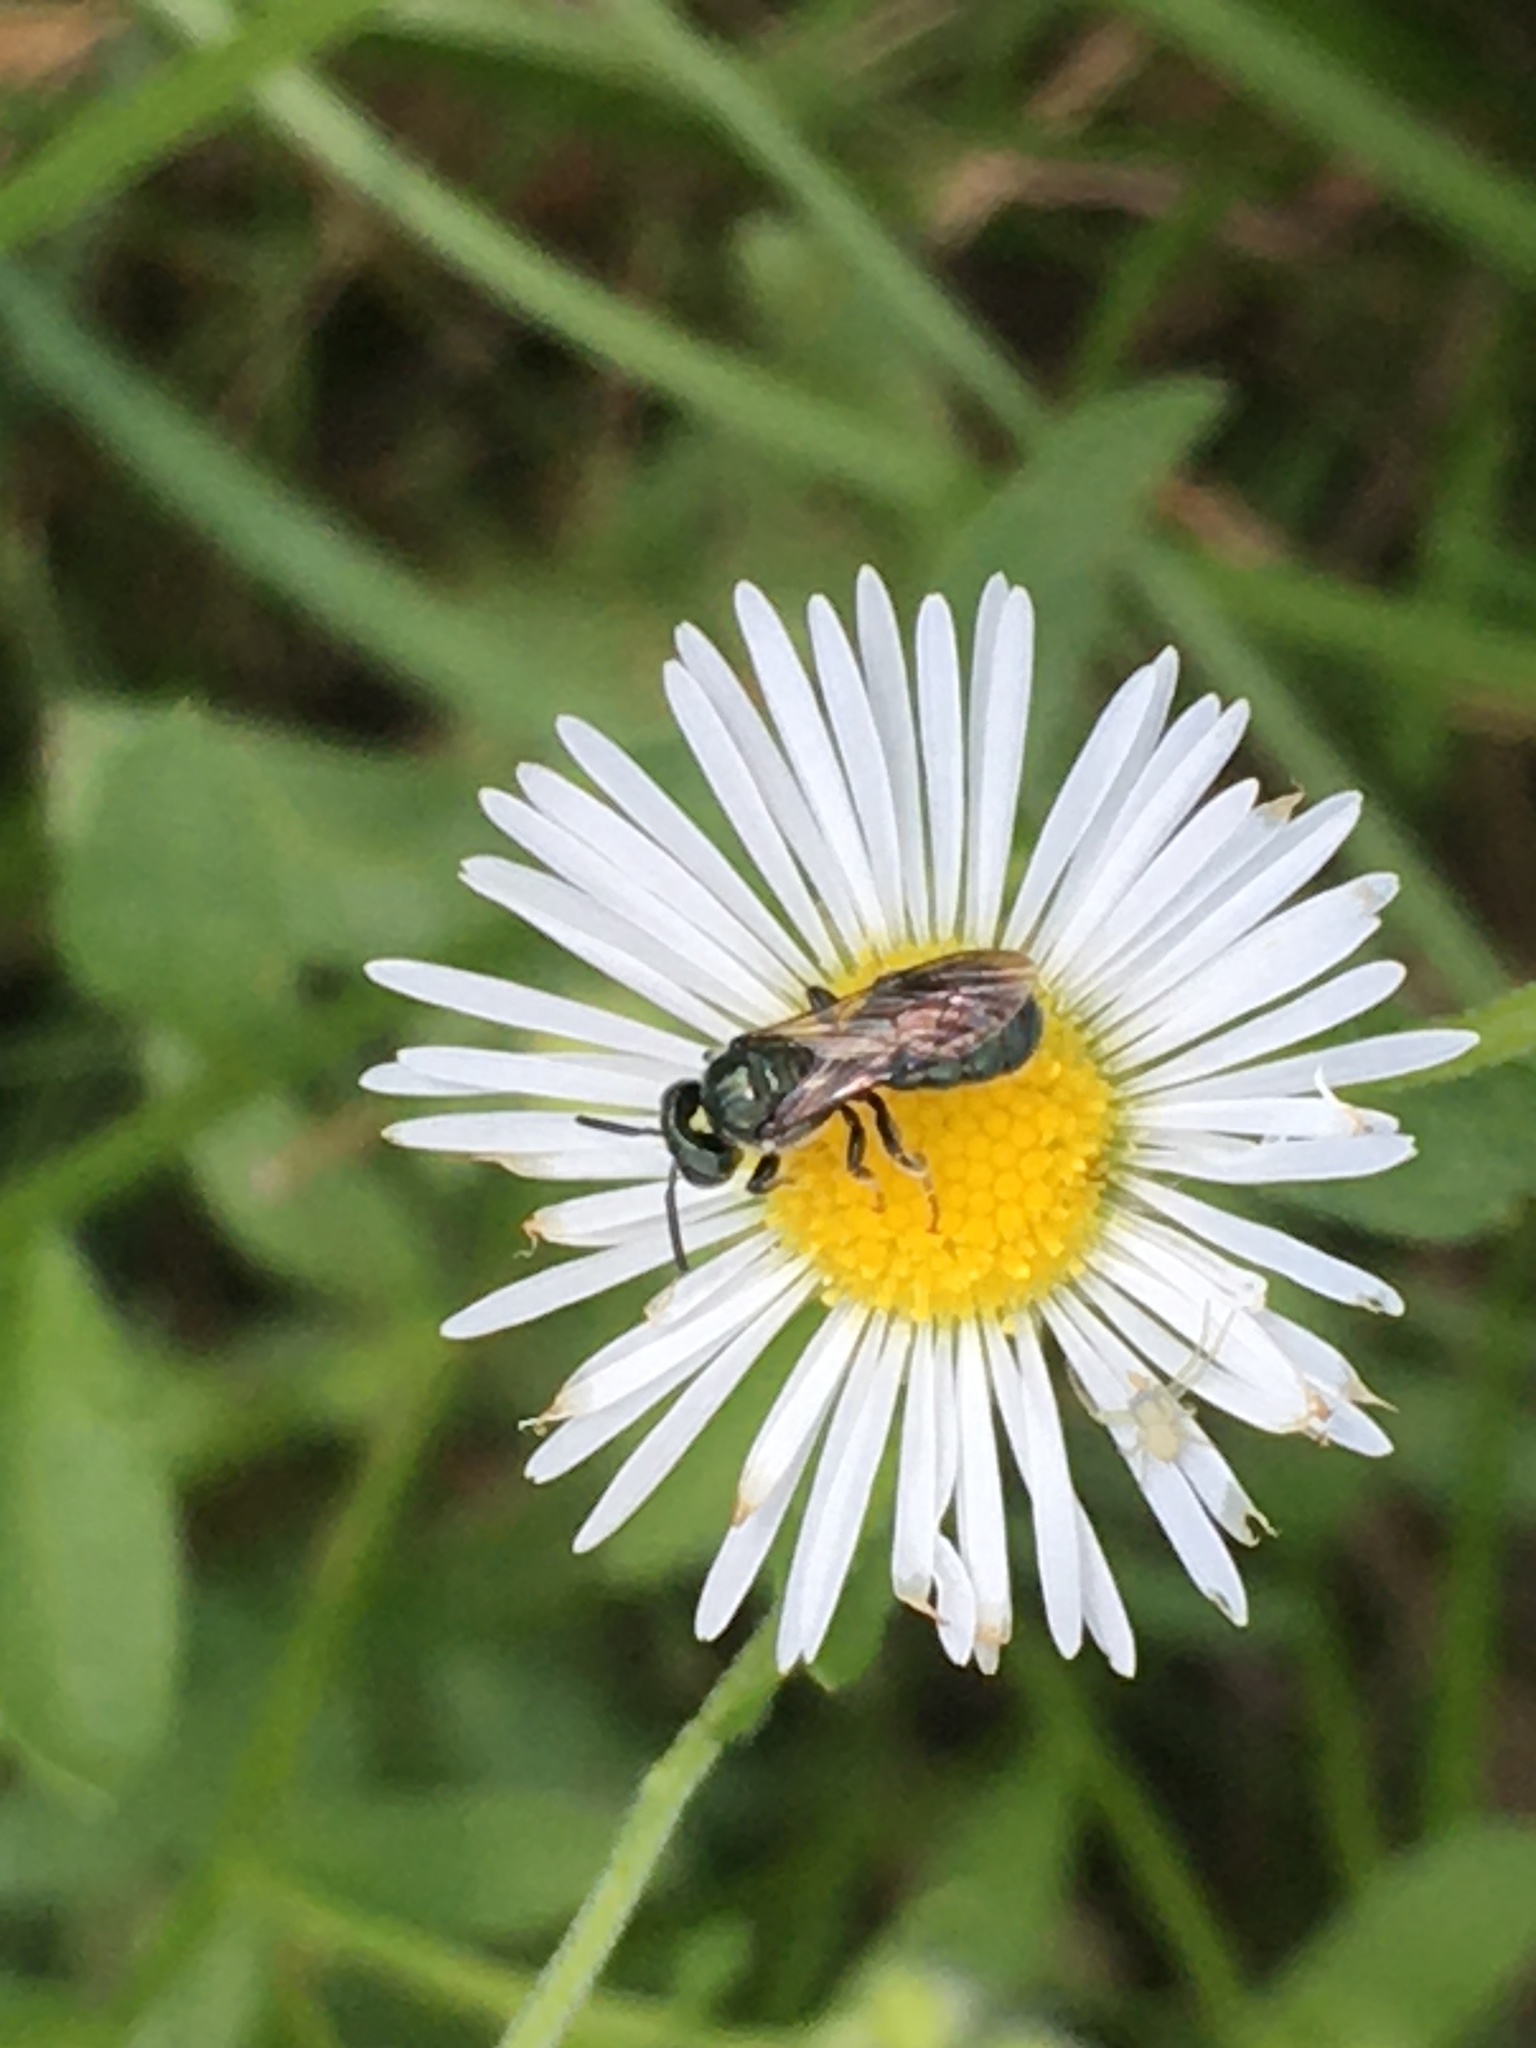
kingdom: Animalia
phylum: Arthropoda
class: Insecta
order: Hymenoptera
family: Apidae
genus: Zadontomerus
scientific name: Zadontomerus
